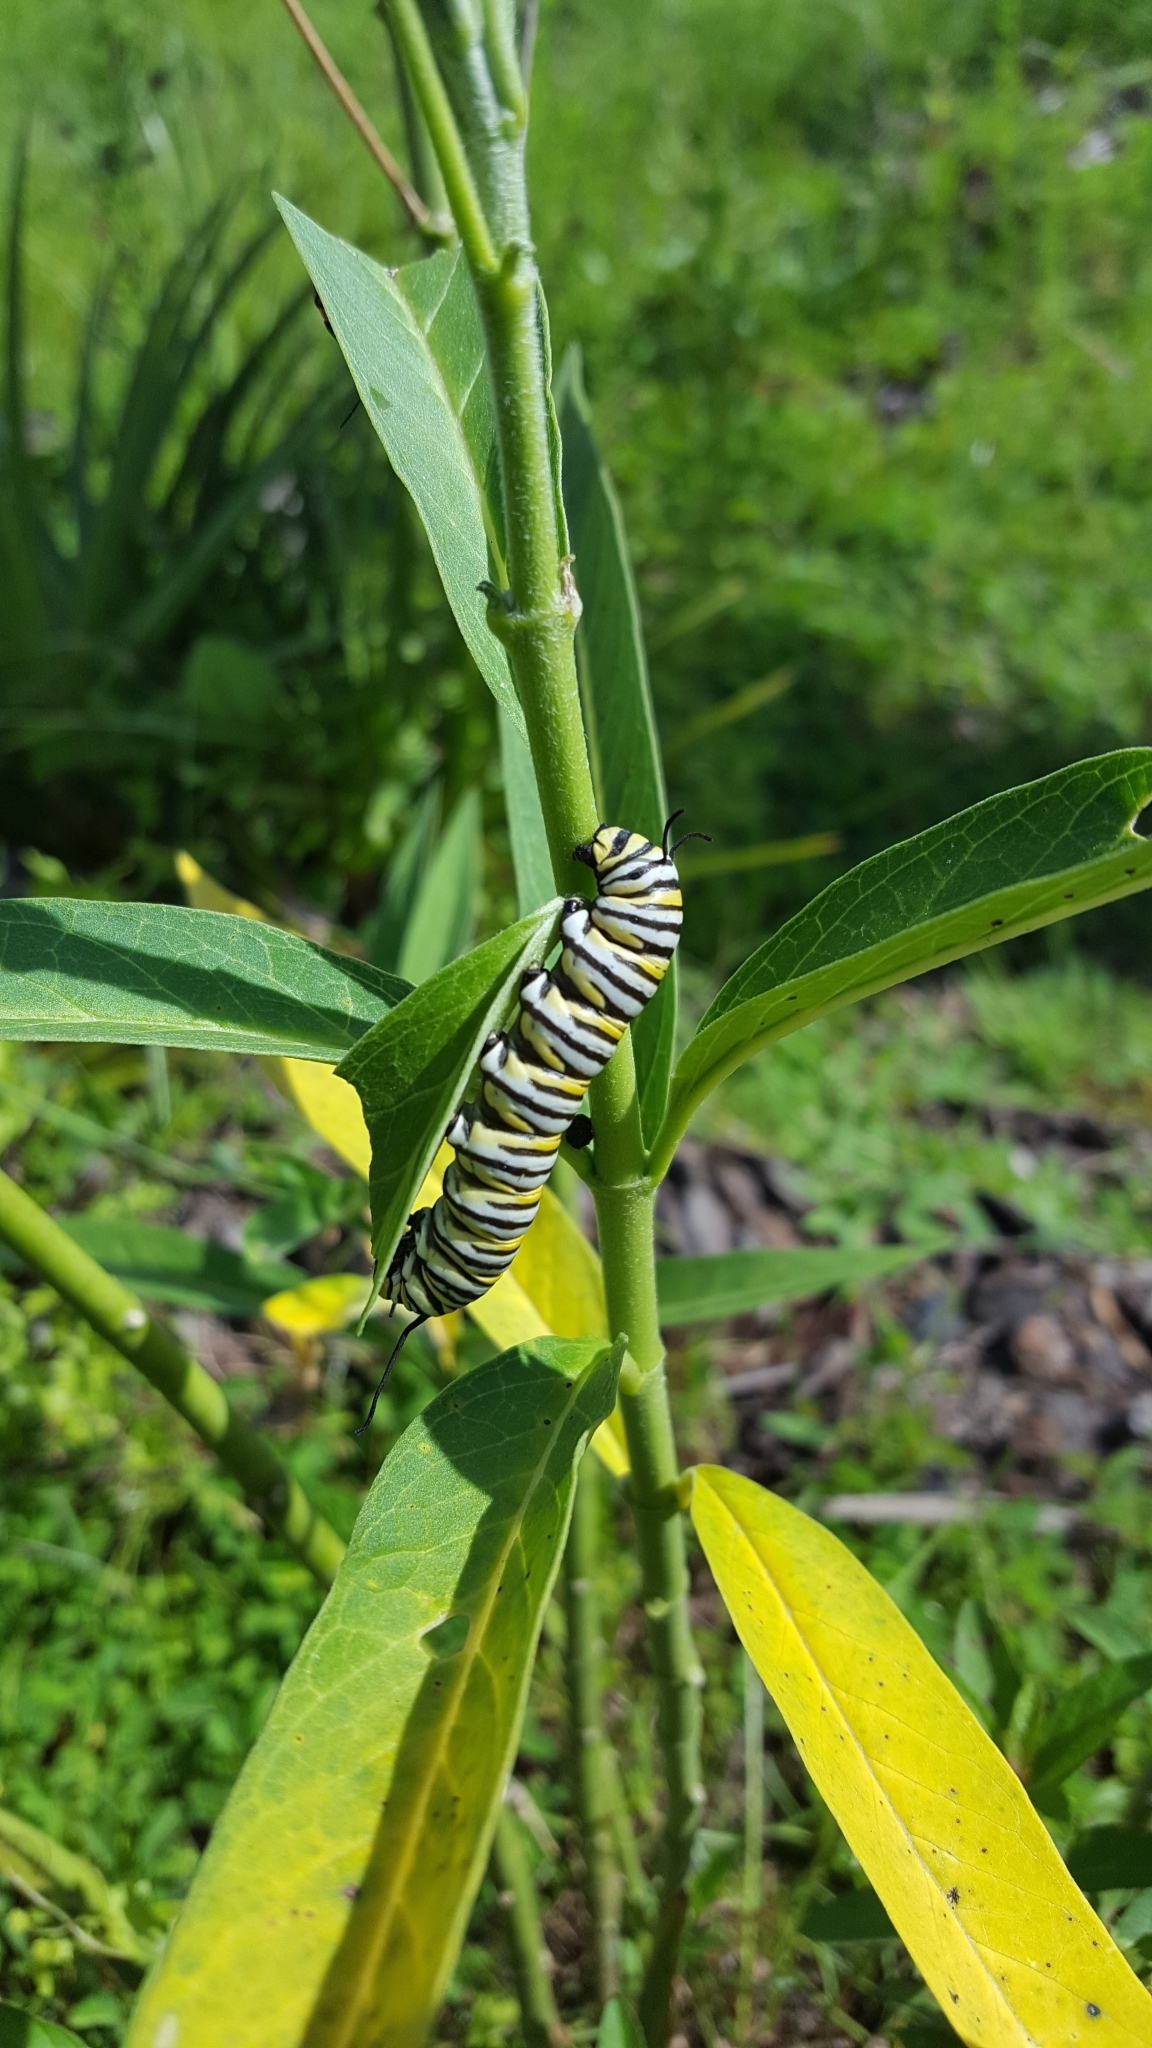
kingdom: Animalia
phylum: Arthropoda
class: Insecta
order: Lepidoptera
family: Nymphalidae
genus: Danaus
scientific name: Danaus plexippus
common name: Monarch
